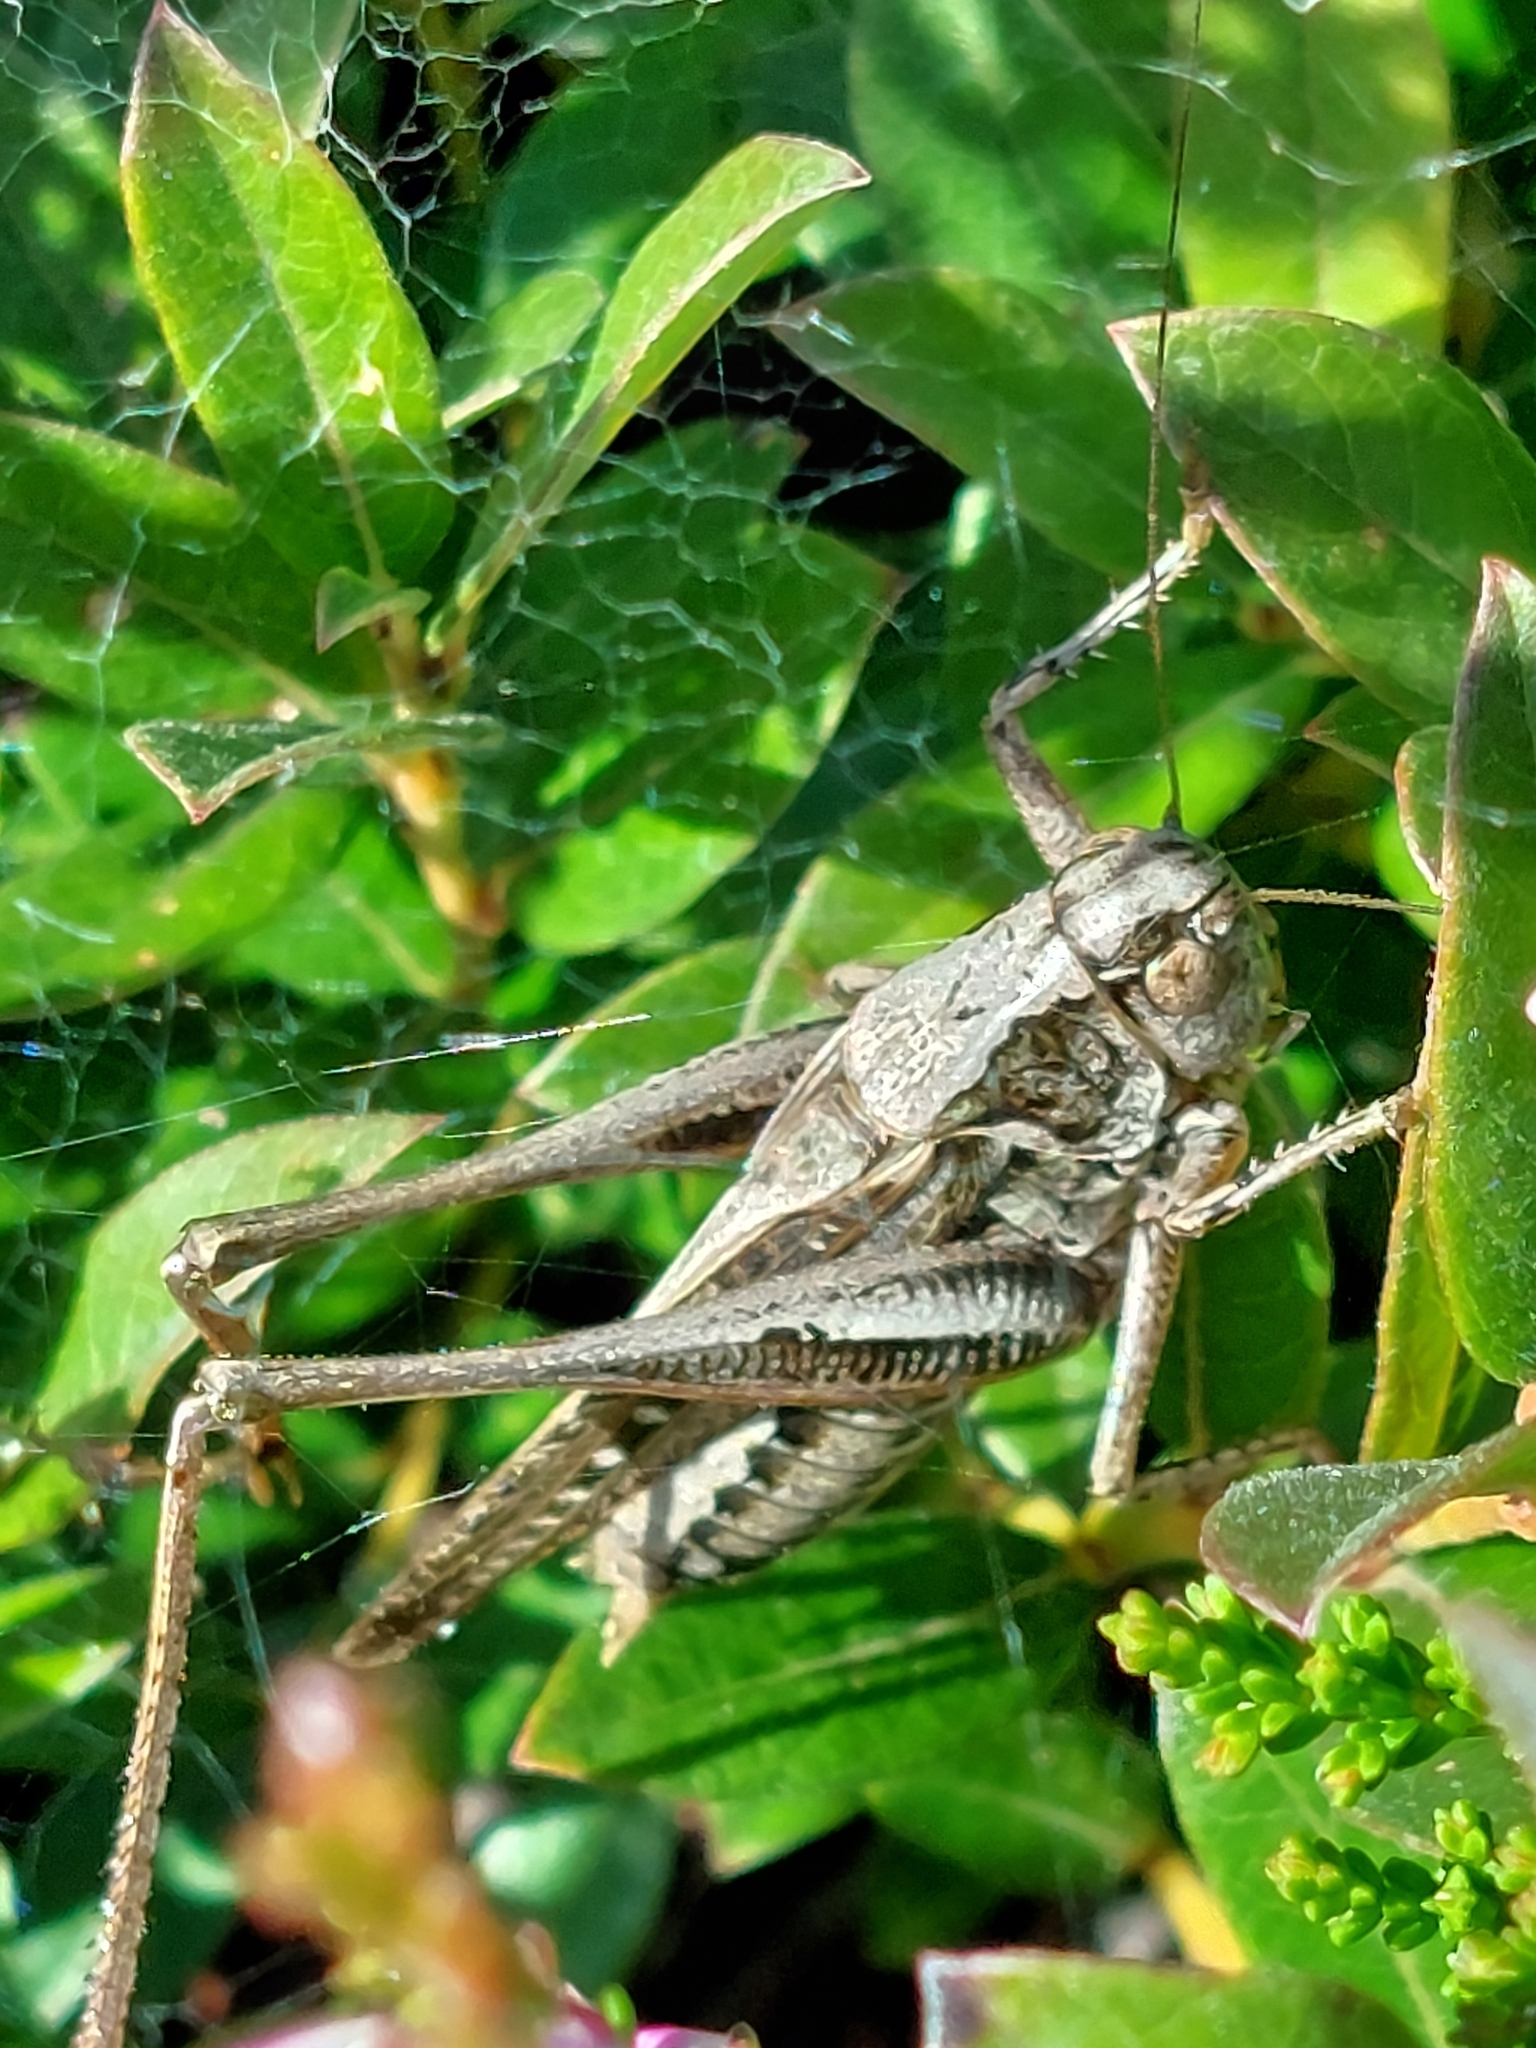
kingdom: Animalia
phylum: Arthropoda
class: Insecta
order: Orthoptera
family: Tettigoniidae
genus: Platycleis
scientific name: Platycleis albopunctata
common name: Grey bush-cricket
